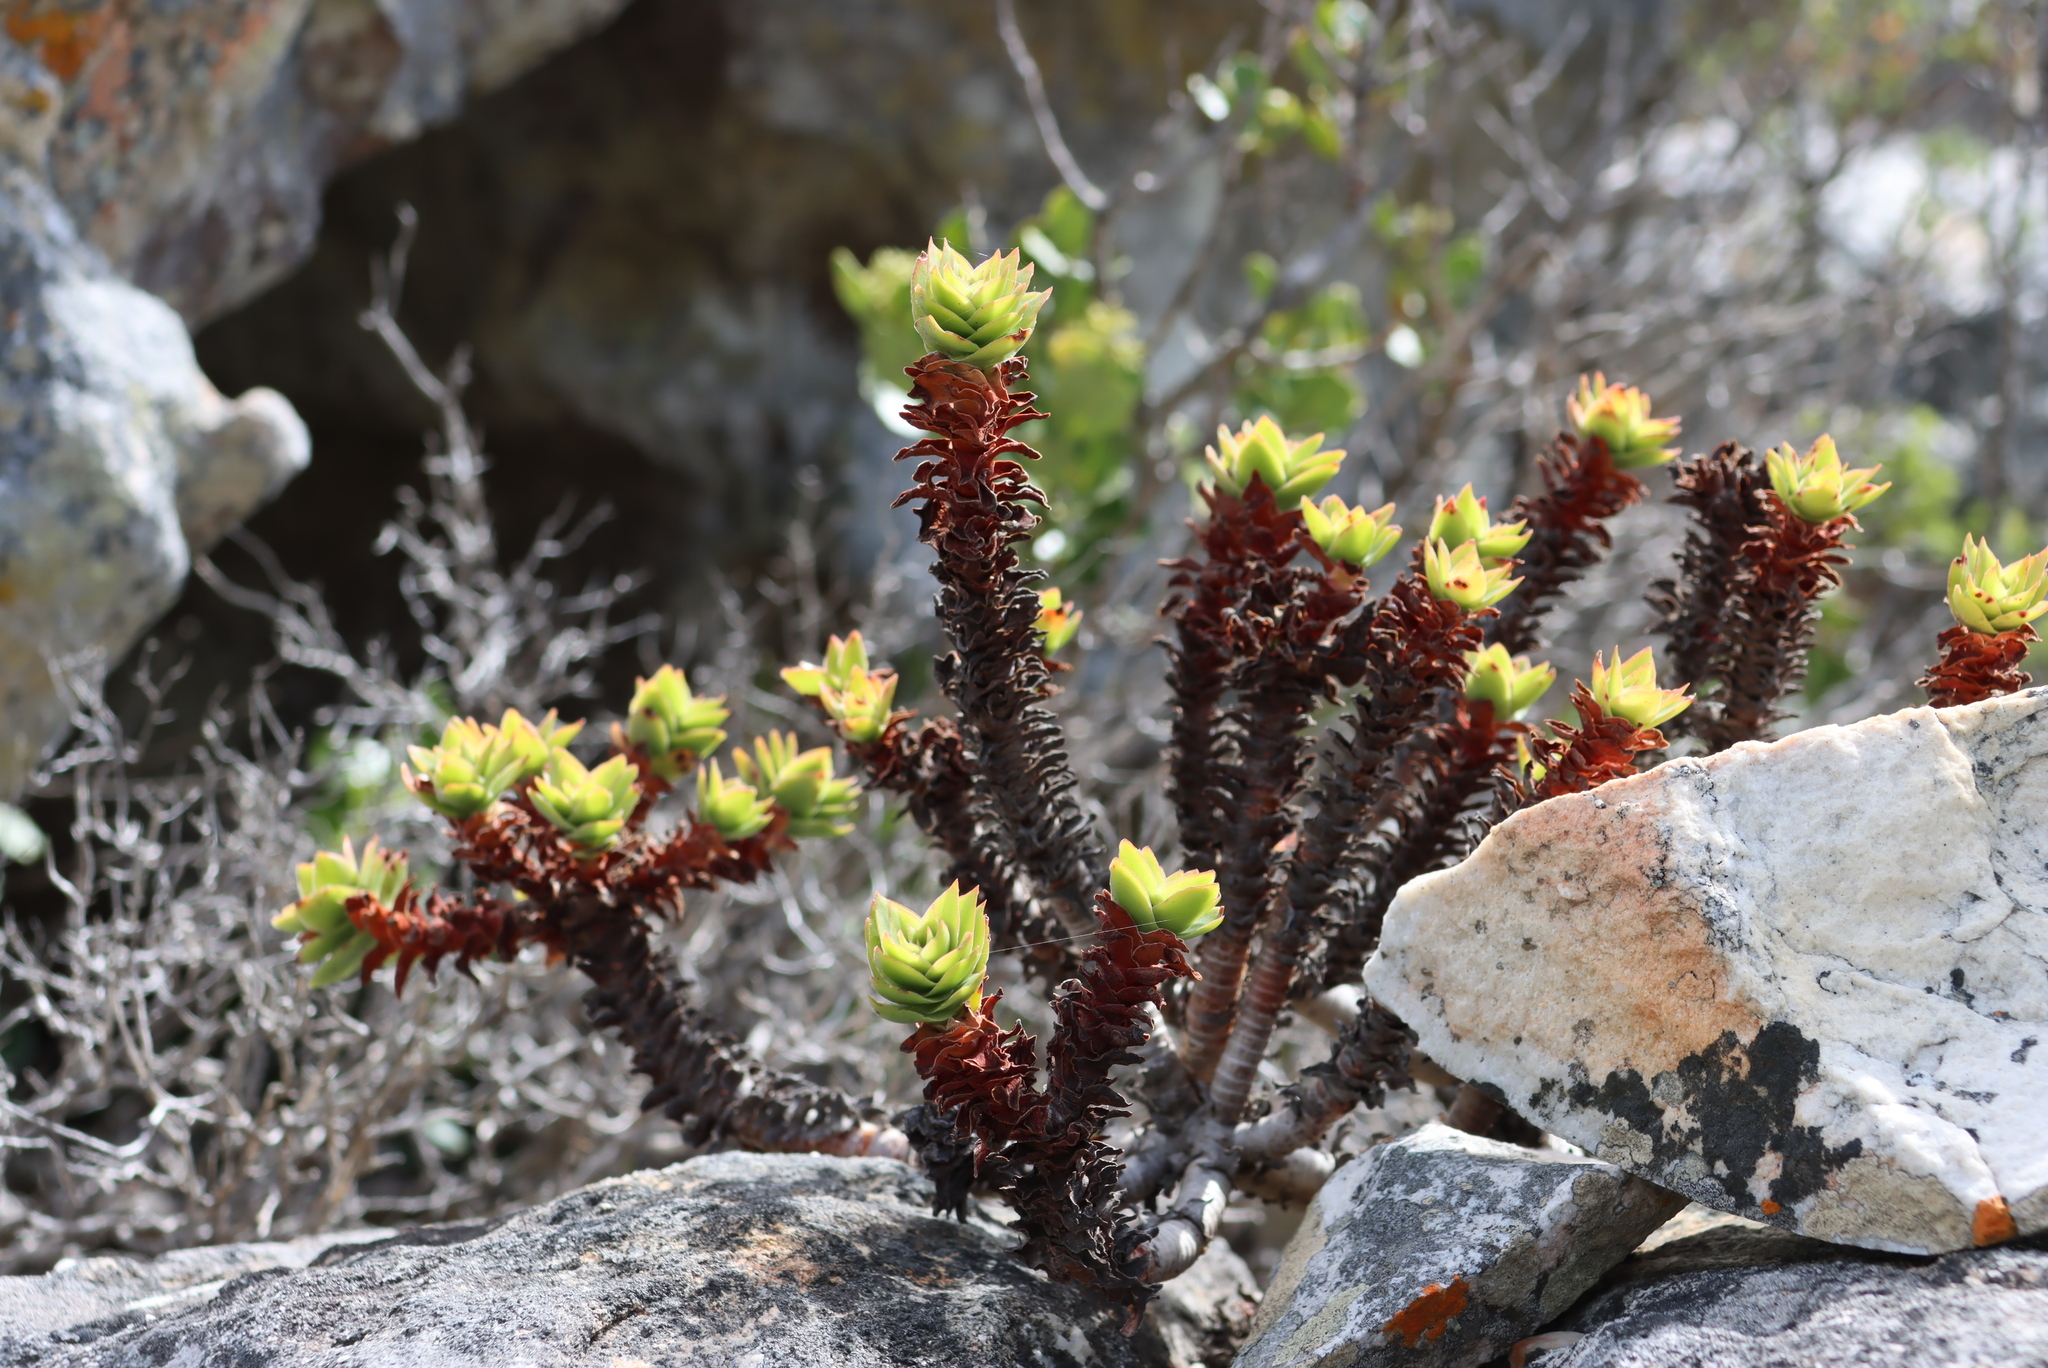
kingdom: Plantae
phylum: Tracheophyta
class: Magnoliopsida
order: Saxifragales
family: Crassulaceae
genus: Crassula
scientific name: Crassula coccinea
